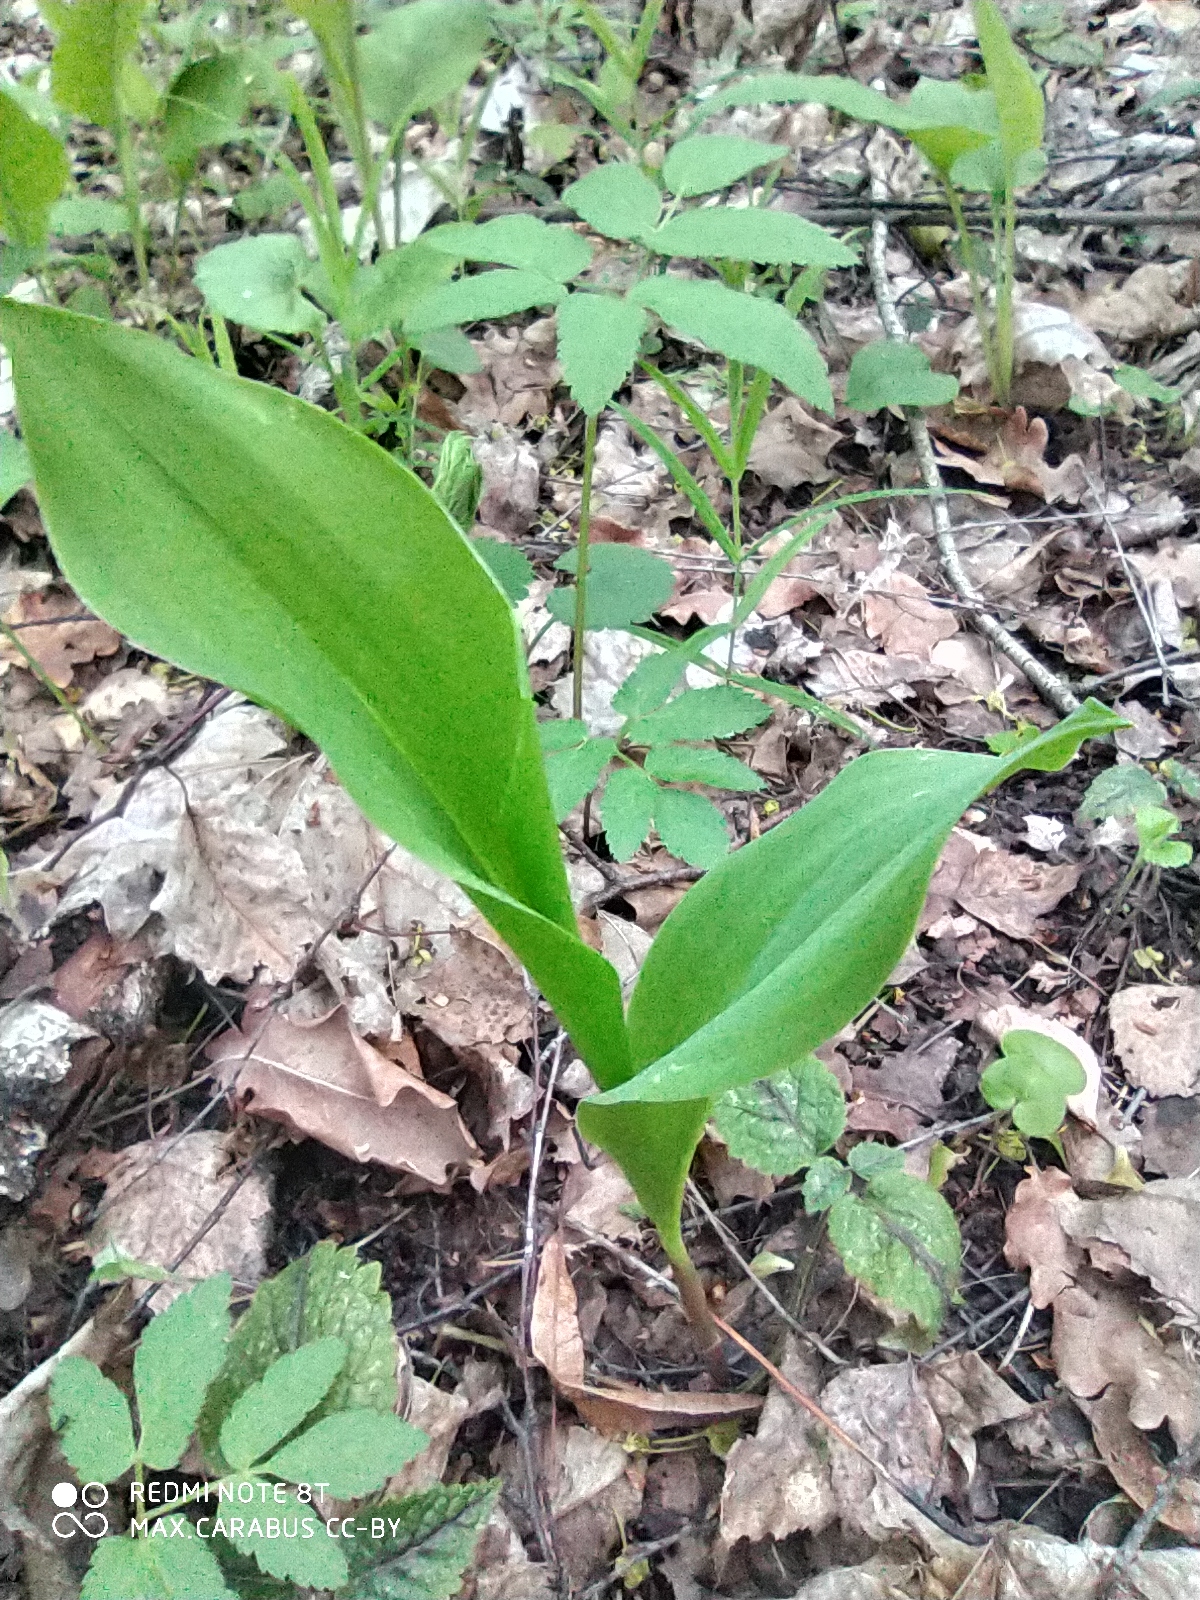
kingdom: Plantae
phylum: Tracheophyta
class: Liliopsida
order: Asparagales
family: Asparagaceae
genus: Convallaria
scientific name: Convallaria majalis
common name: Lily-of-the-valley
